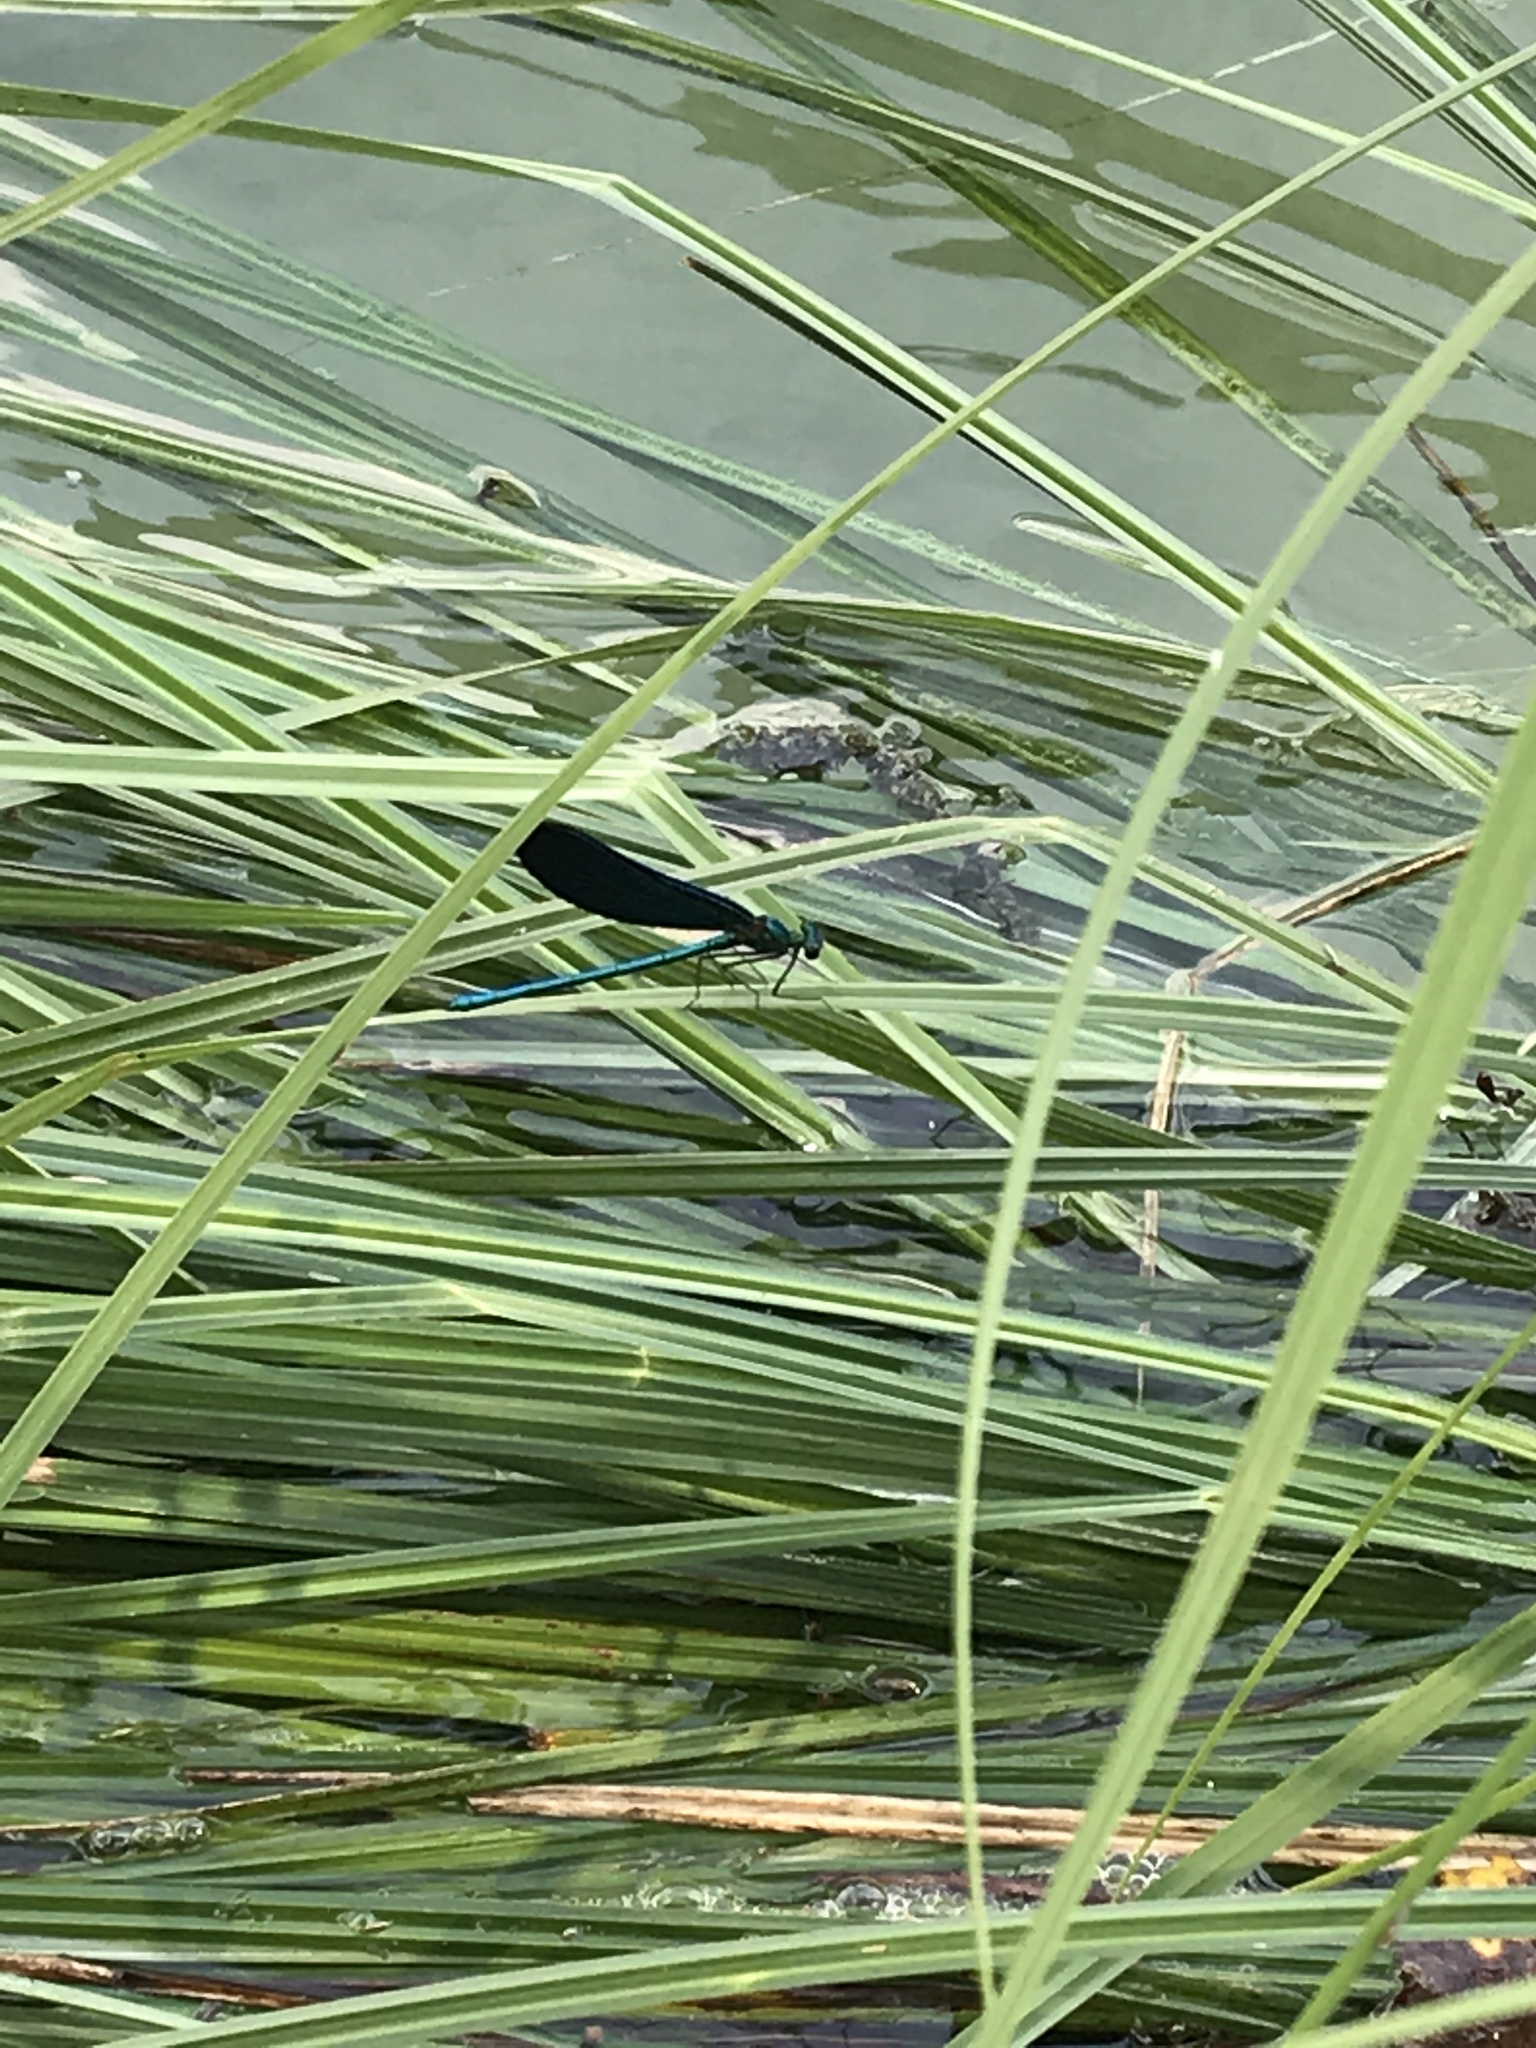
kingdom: Animalia
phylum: Arthropoda
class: Insecta
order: Odonata
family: Calopterygidae
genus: Calopteryx
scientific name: Calopteryx virgo
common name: Beautiful demoiselle
